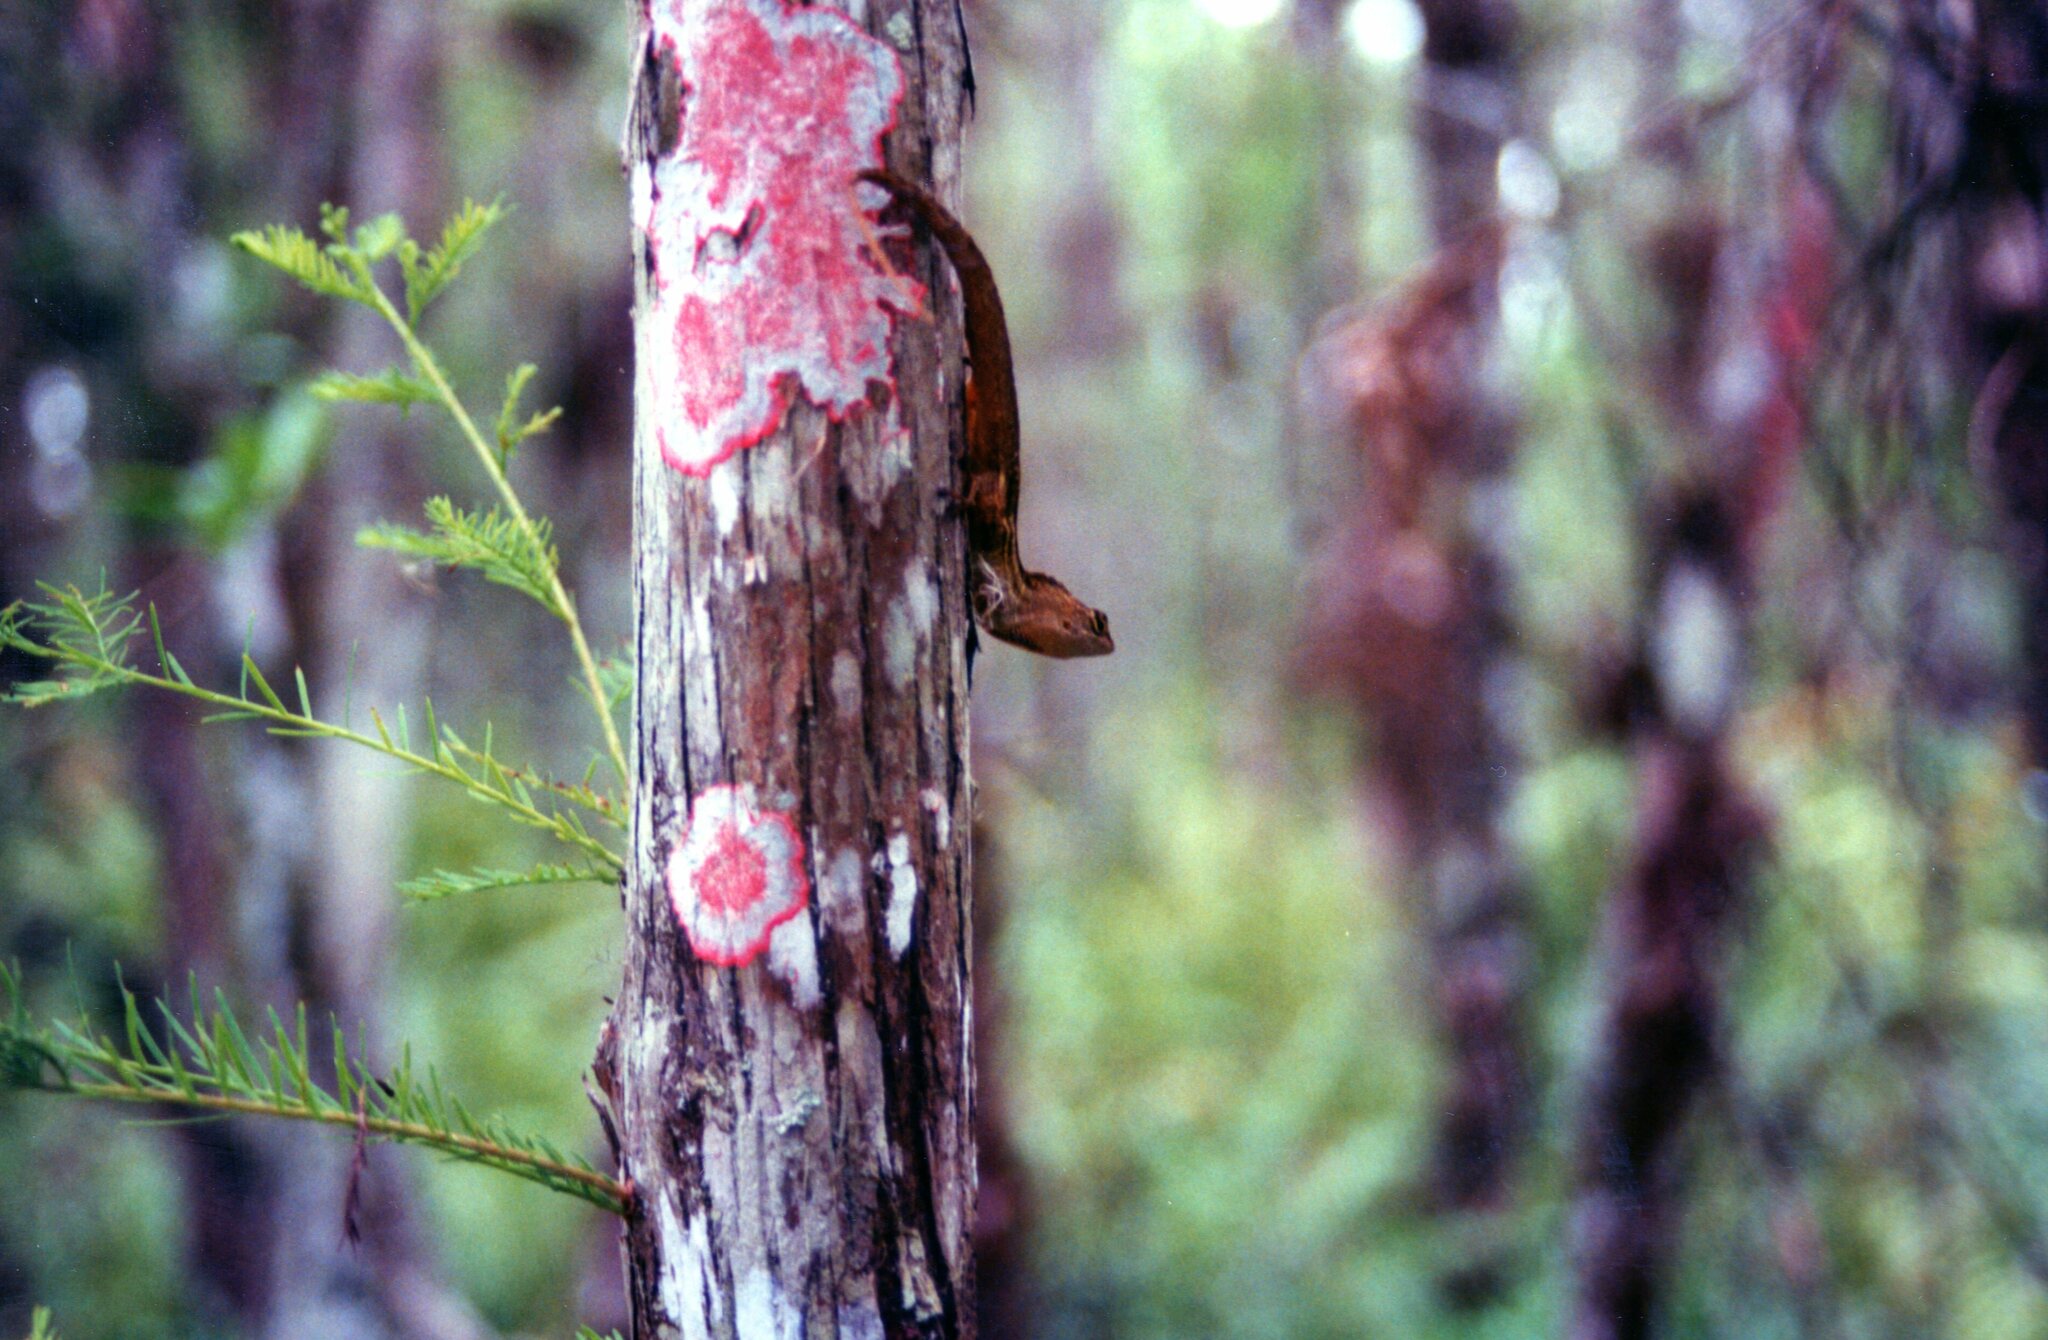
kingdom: Animalia
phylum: Chordata
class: Squamata
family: Dactyloidae
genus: Anolis
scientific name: Anolis sagrei
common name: Brown anole
